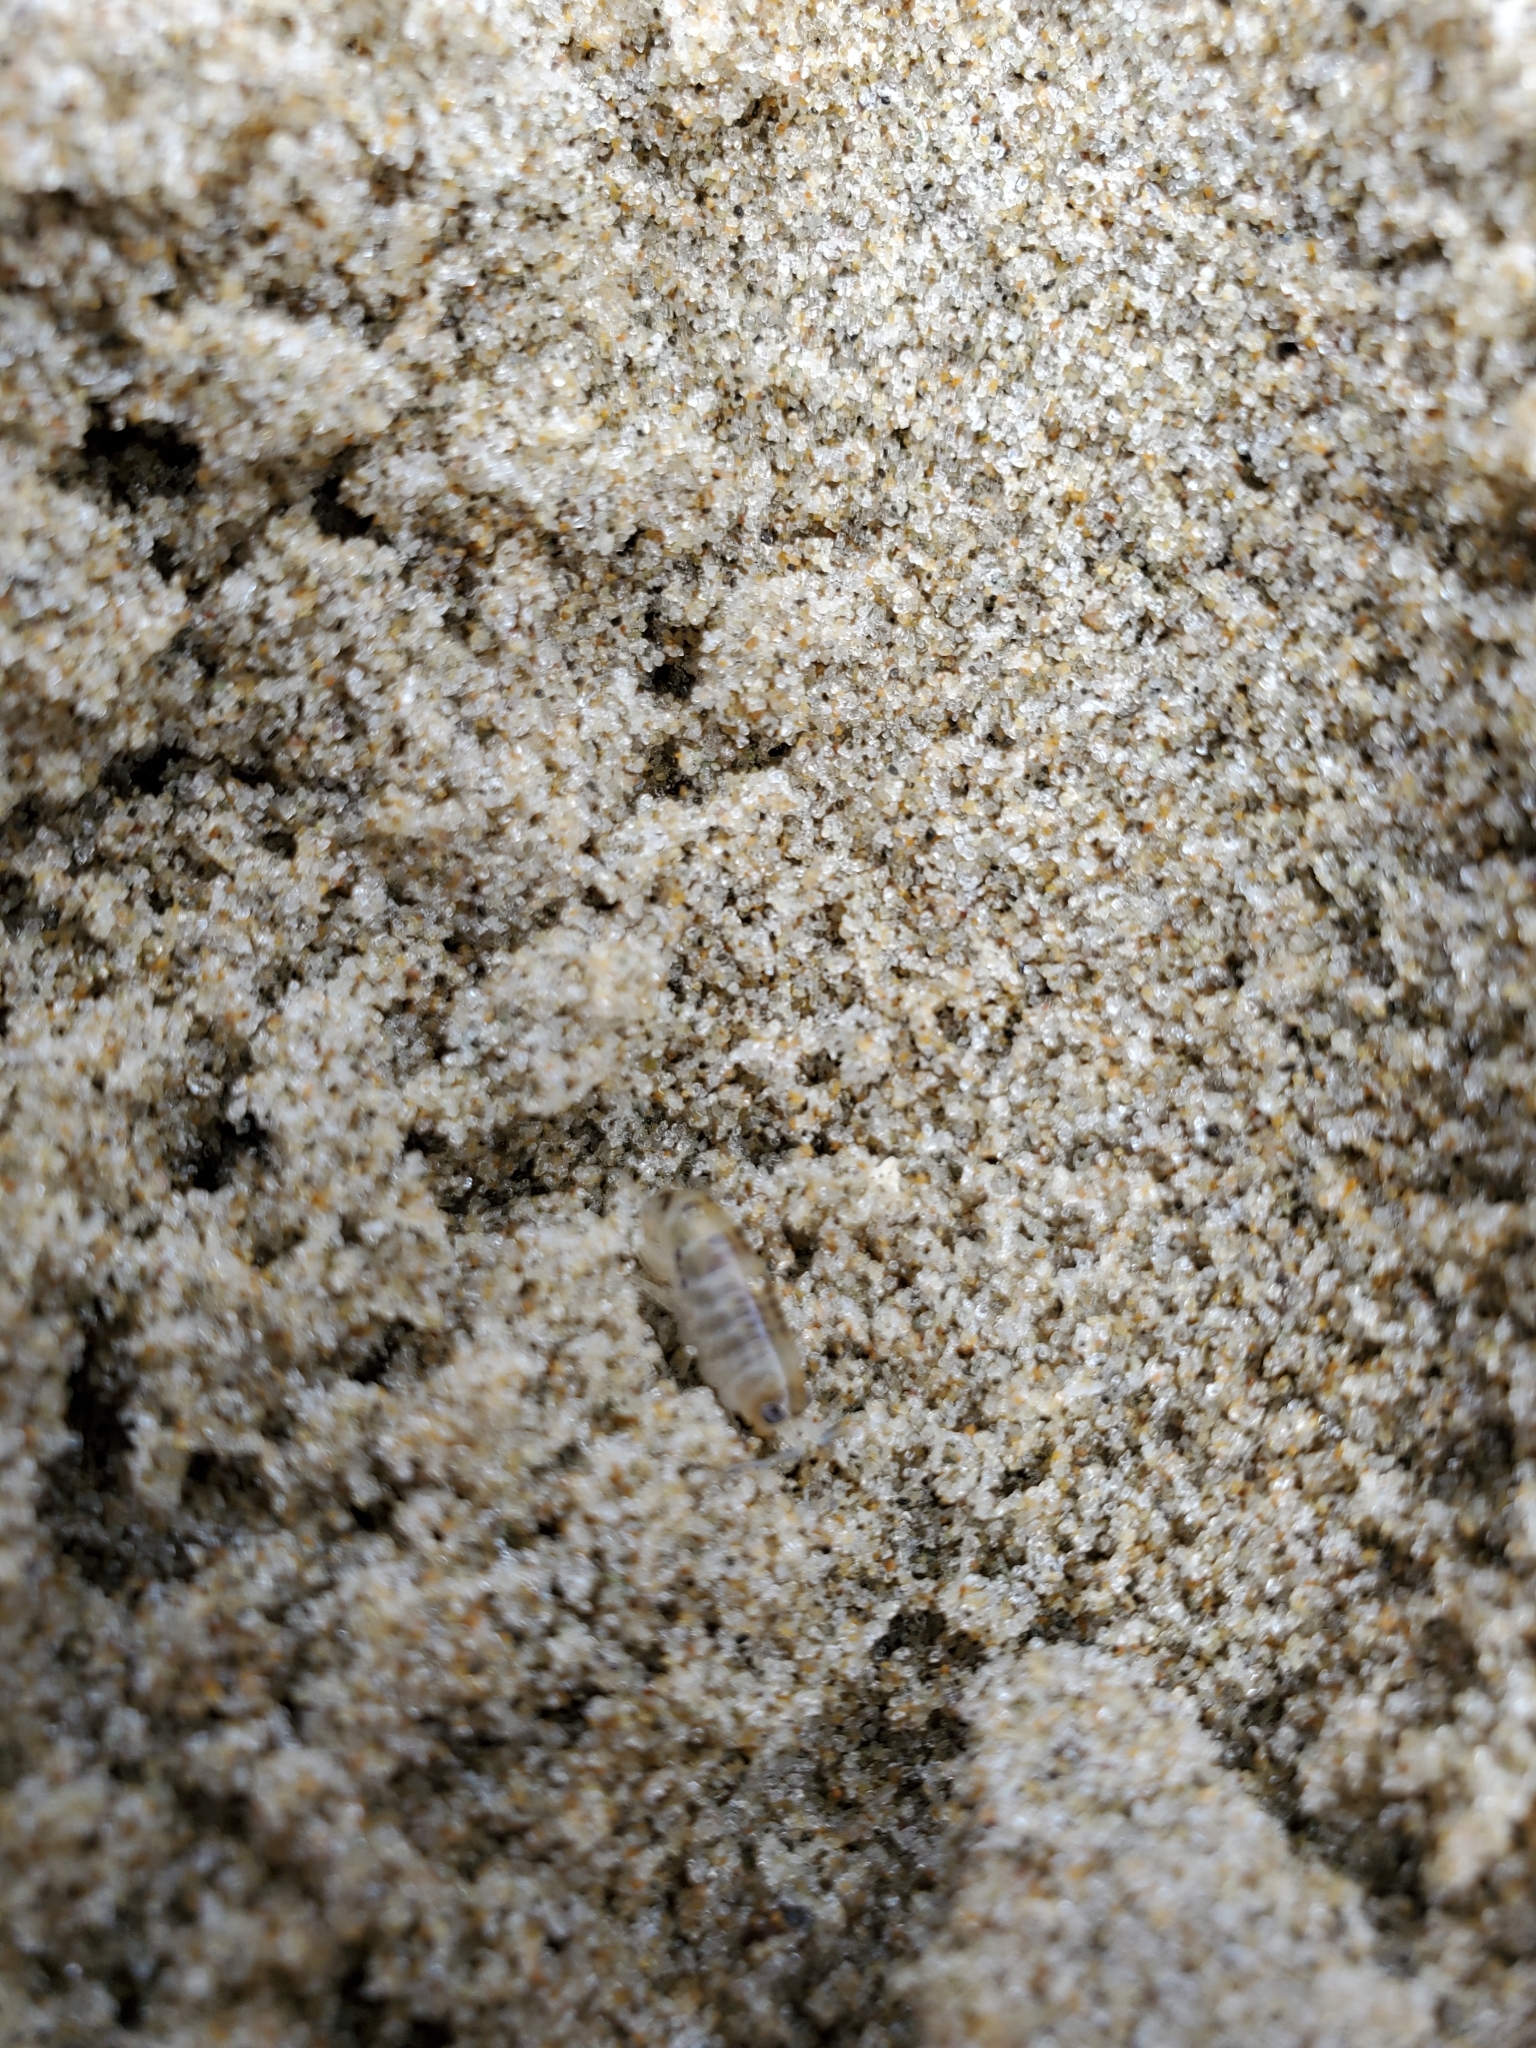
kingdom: Animalia
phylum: Arthropoda
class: Malacostraca
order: Amphipoda
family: Talitridae
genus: Megalorchestia
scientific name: Megalorchestia columbiana
